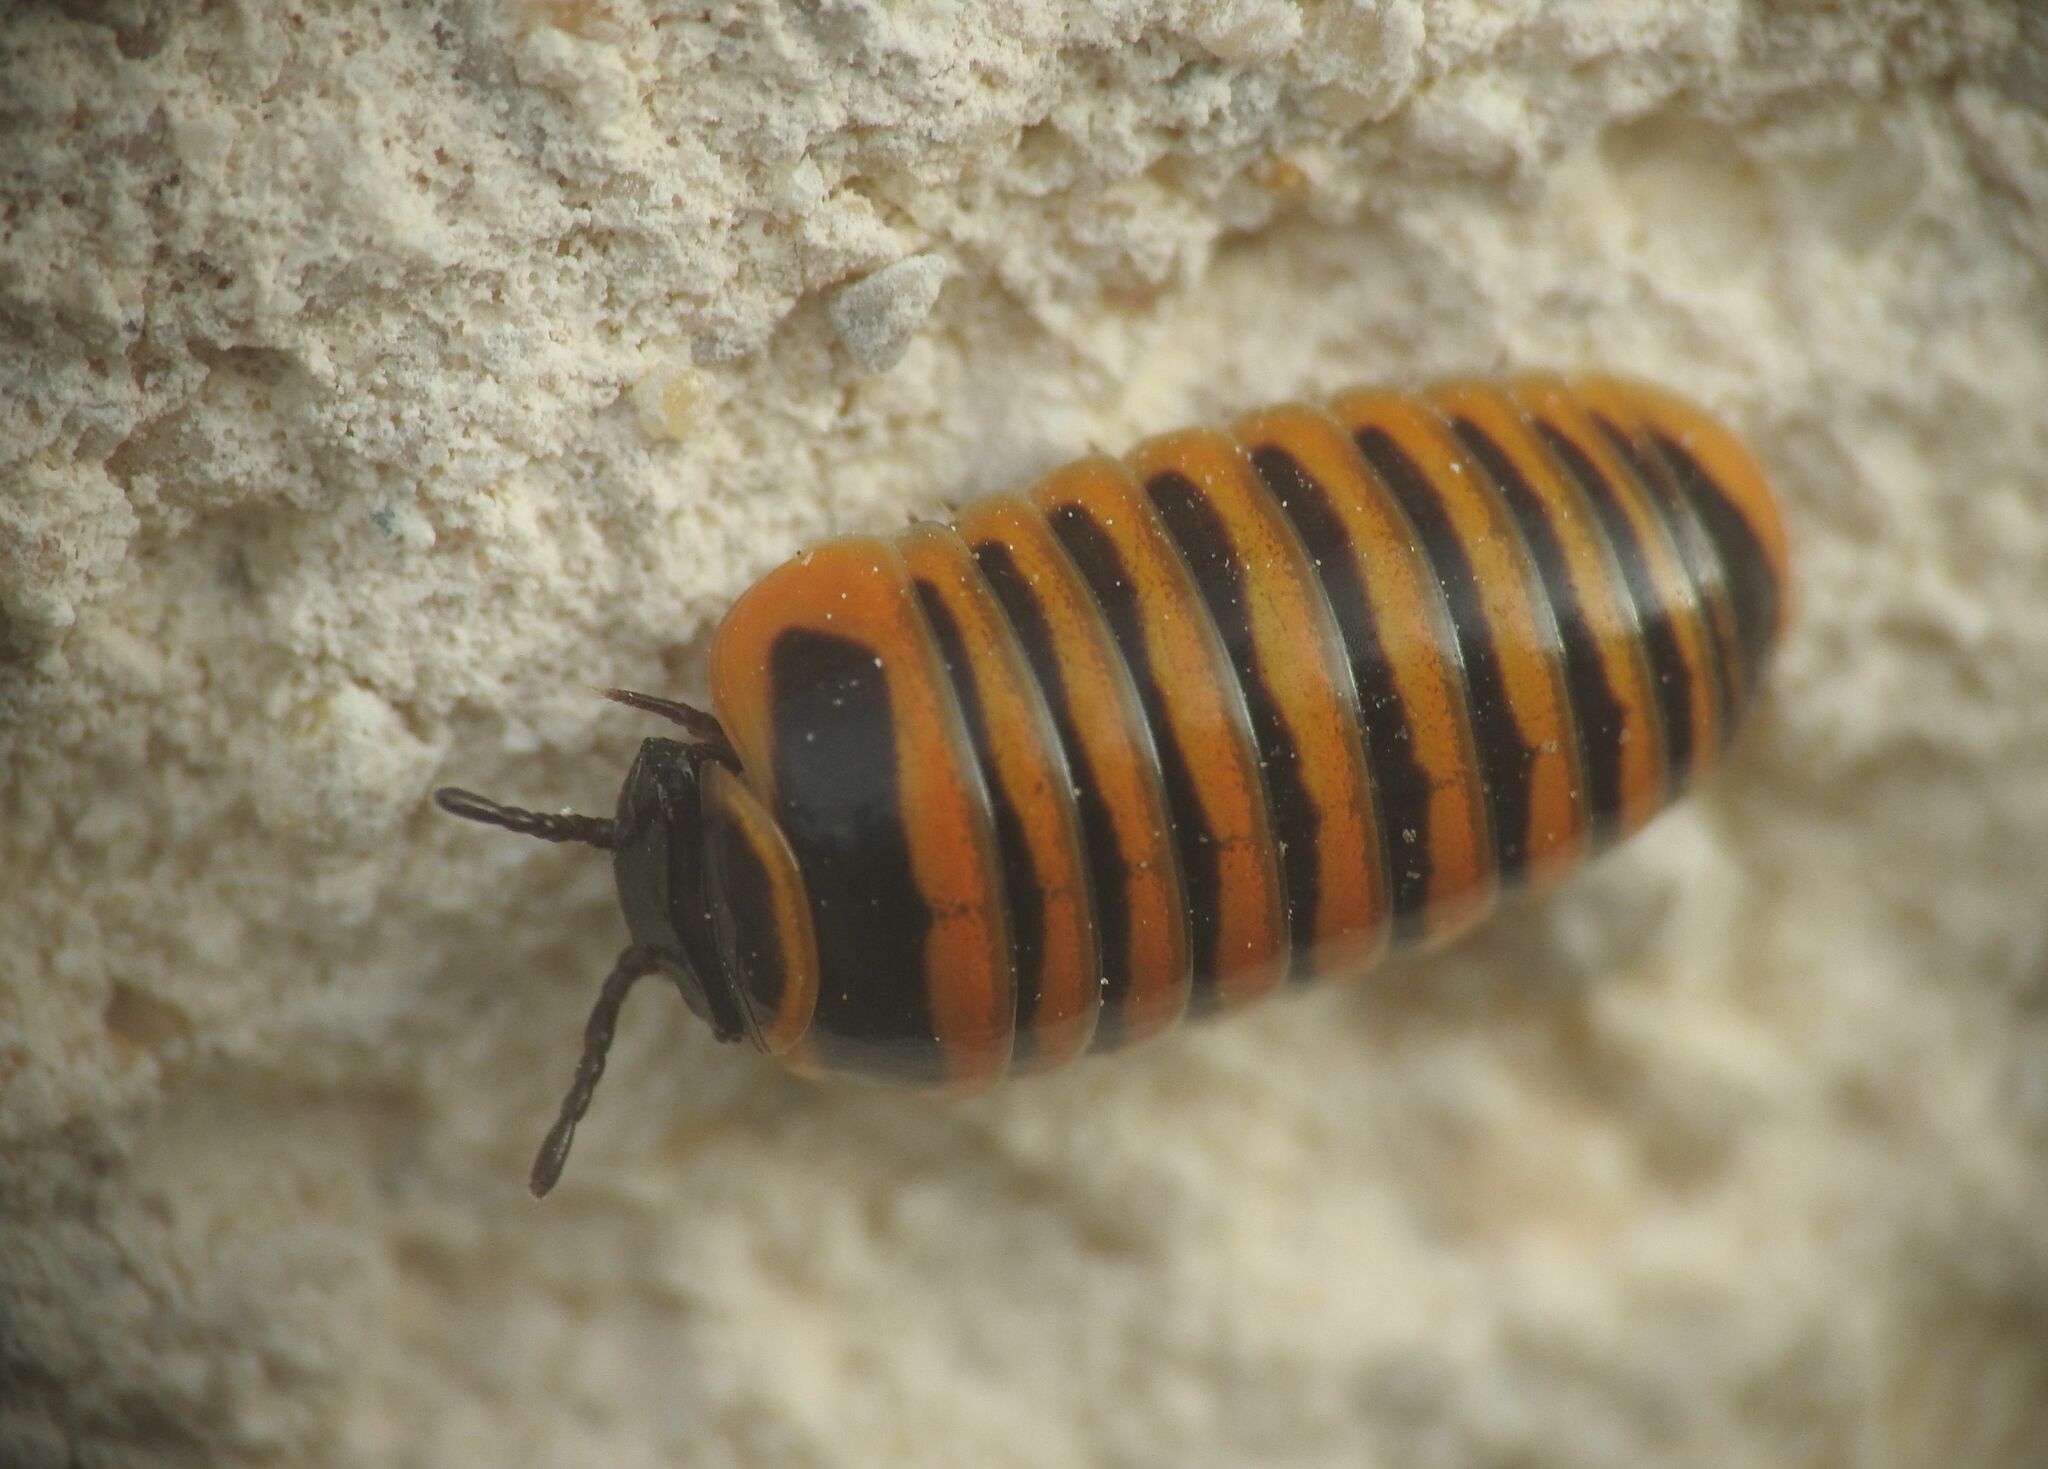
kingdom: Animalia
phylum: Arthropoda
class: Diplopoda
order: Glomerida
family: Glomeridae
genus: Glomeris
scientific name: Glomeris annulata
